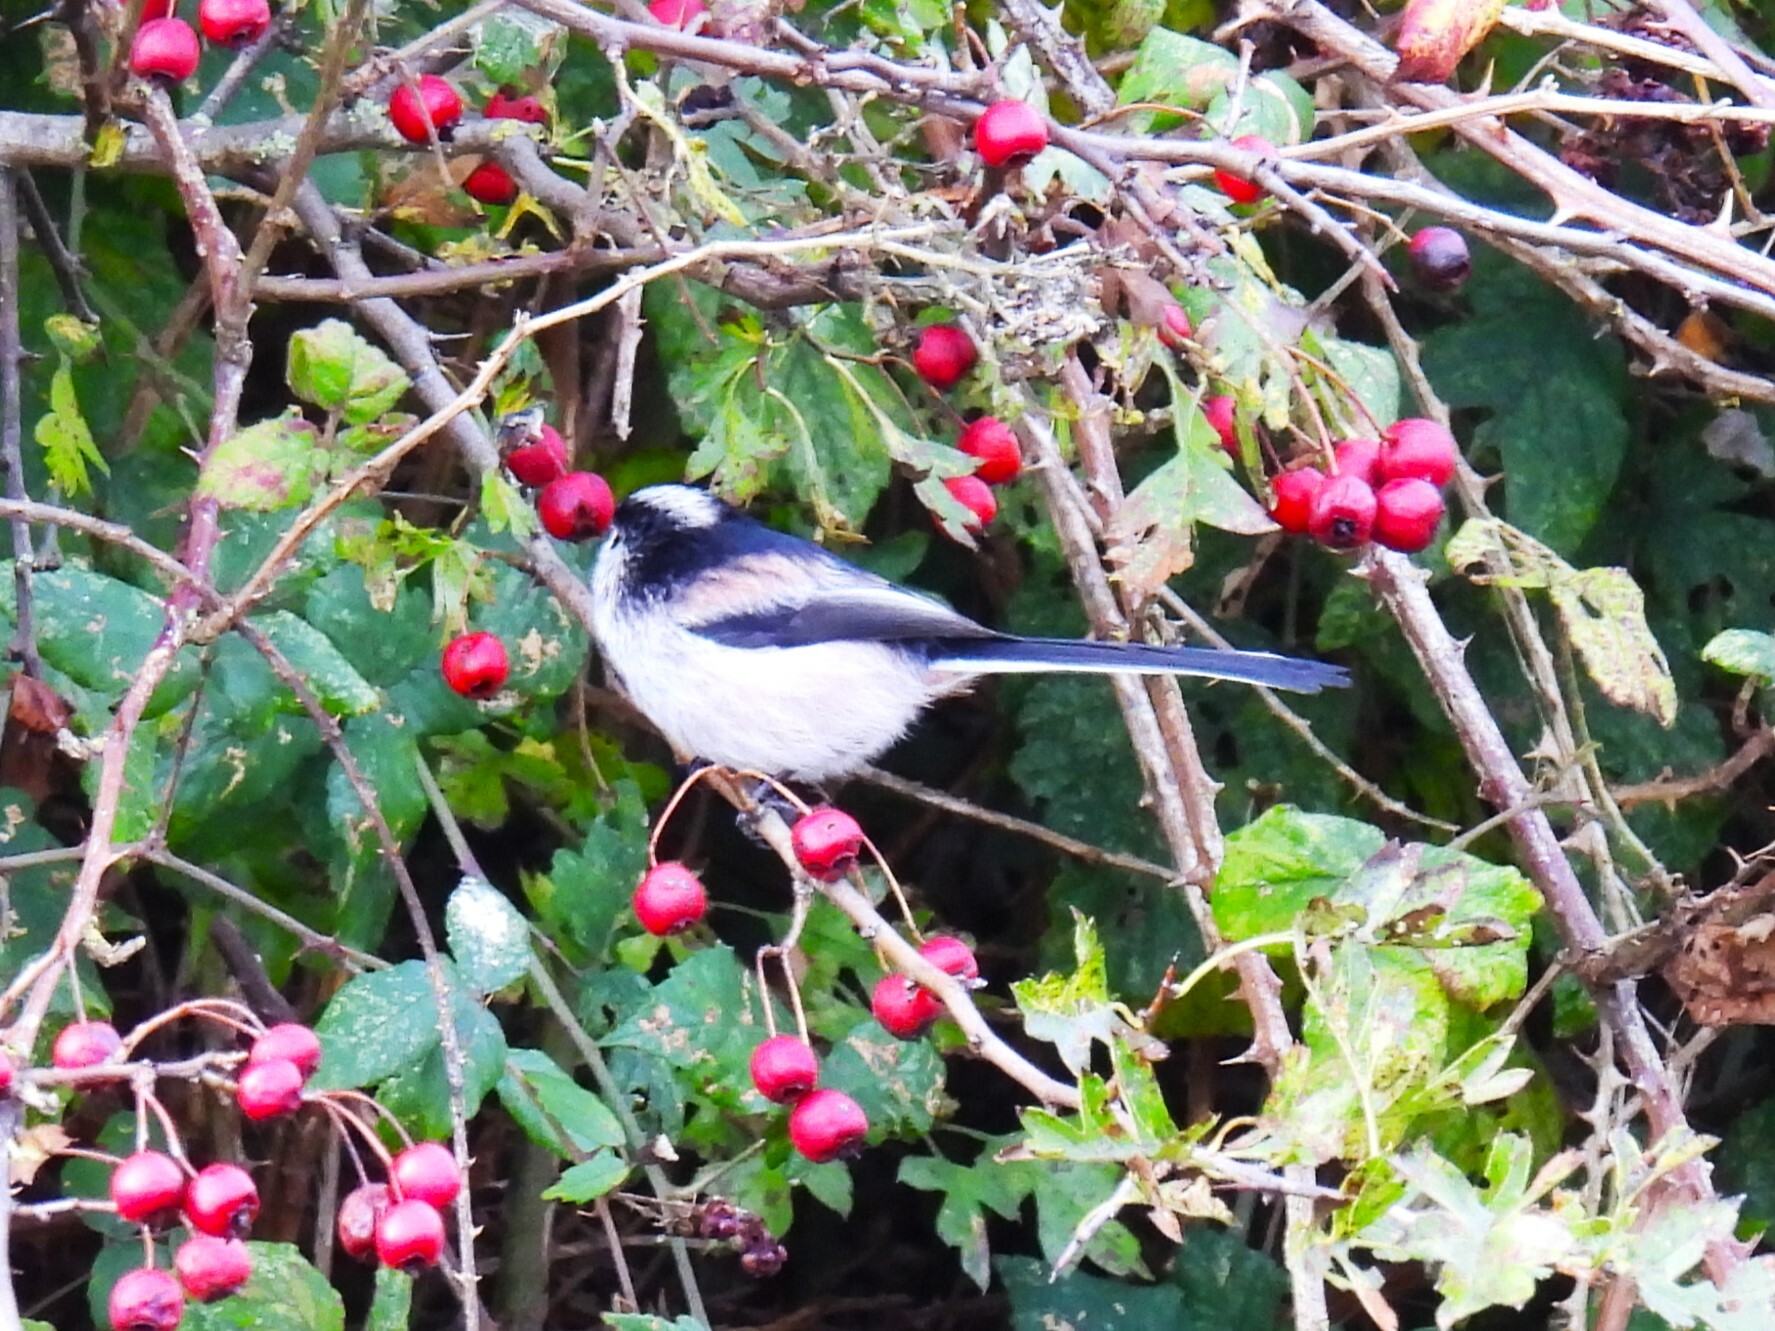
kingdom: Animalia
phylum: Chordata
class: Aves
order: Passeriformes
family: Aegithalidae
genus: Aegithalos
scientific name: Aegithalos caudatus
